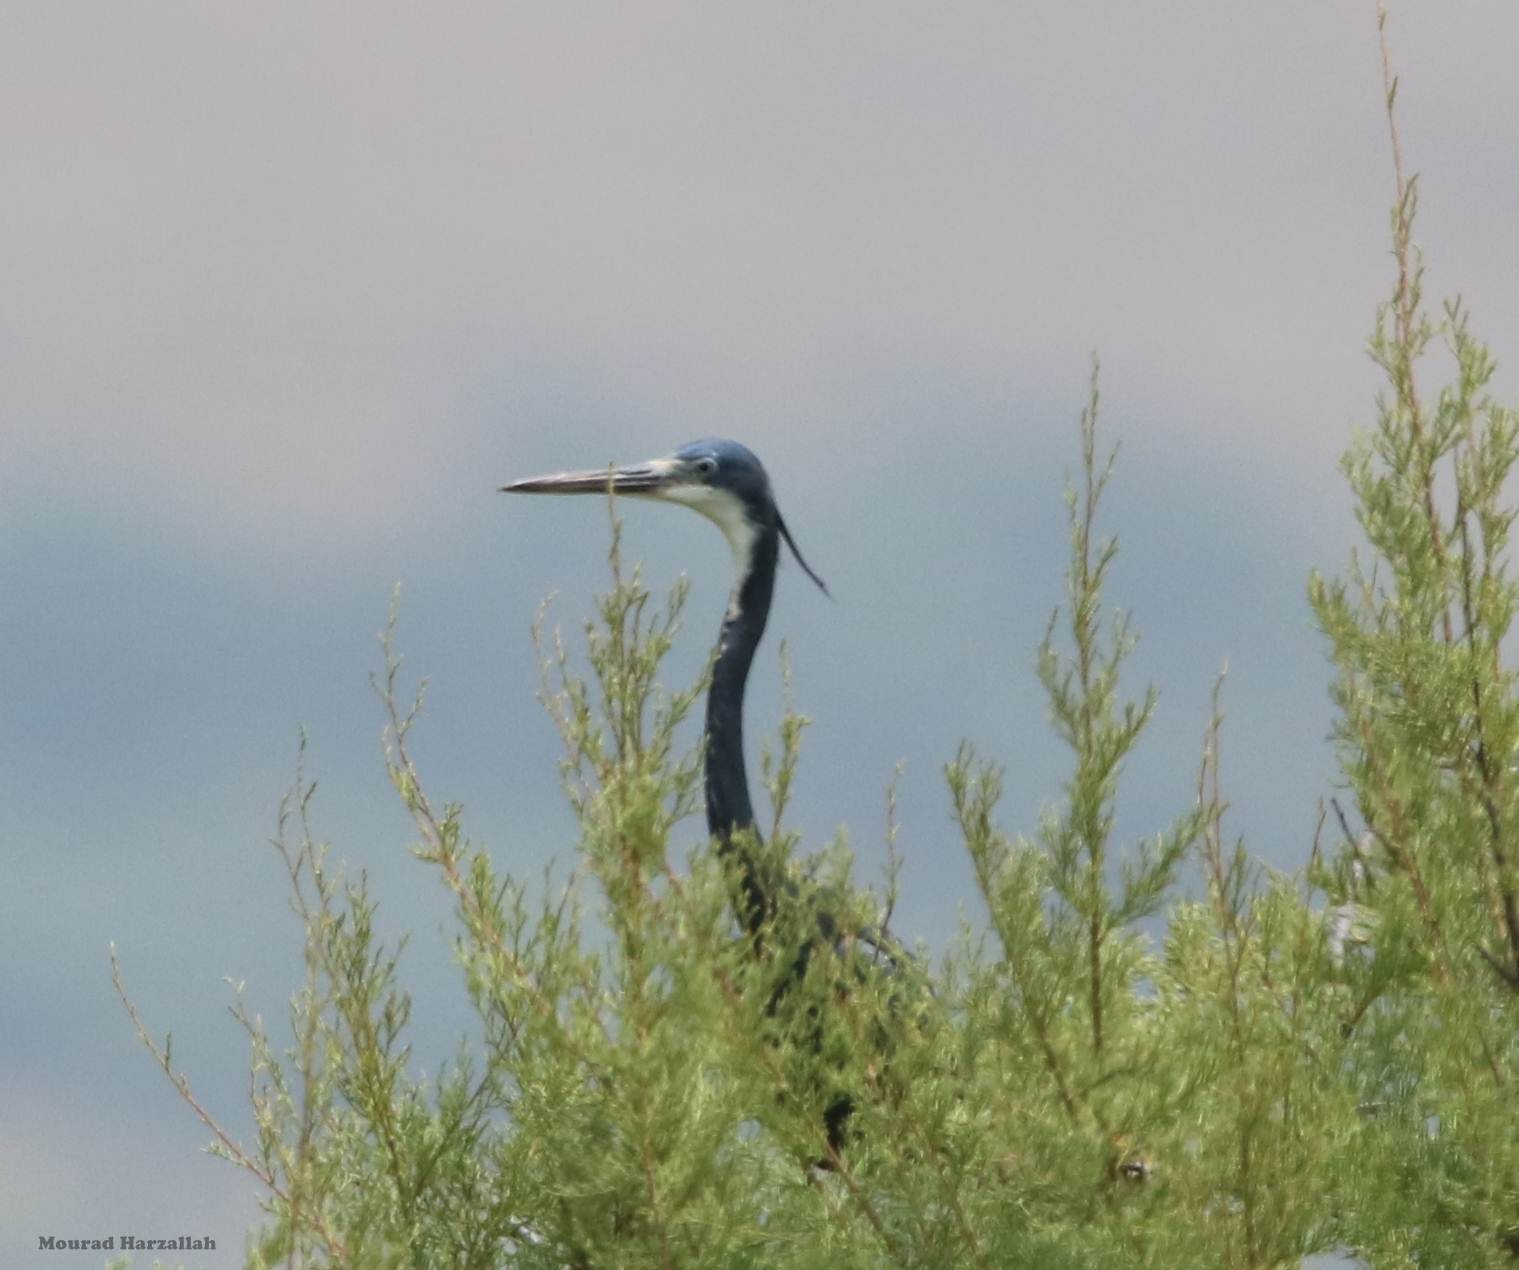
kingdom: Animalia
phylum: Chordata
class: Aves
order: Pelecaniformes
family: Ardeidae
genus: Egretta
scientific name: Egretta gularis
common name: Western reef-heron
